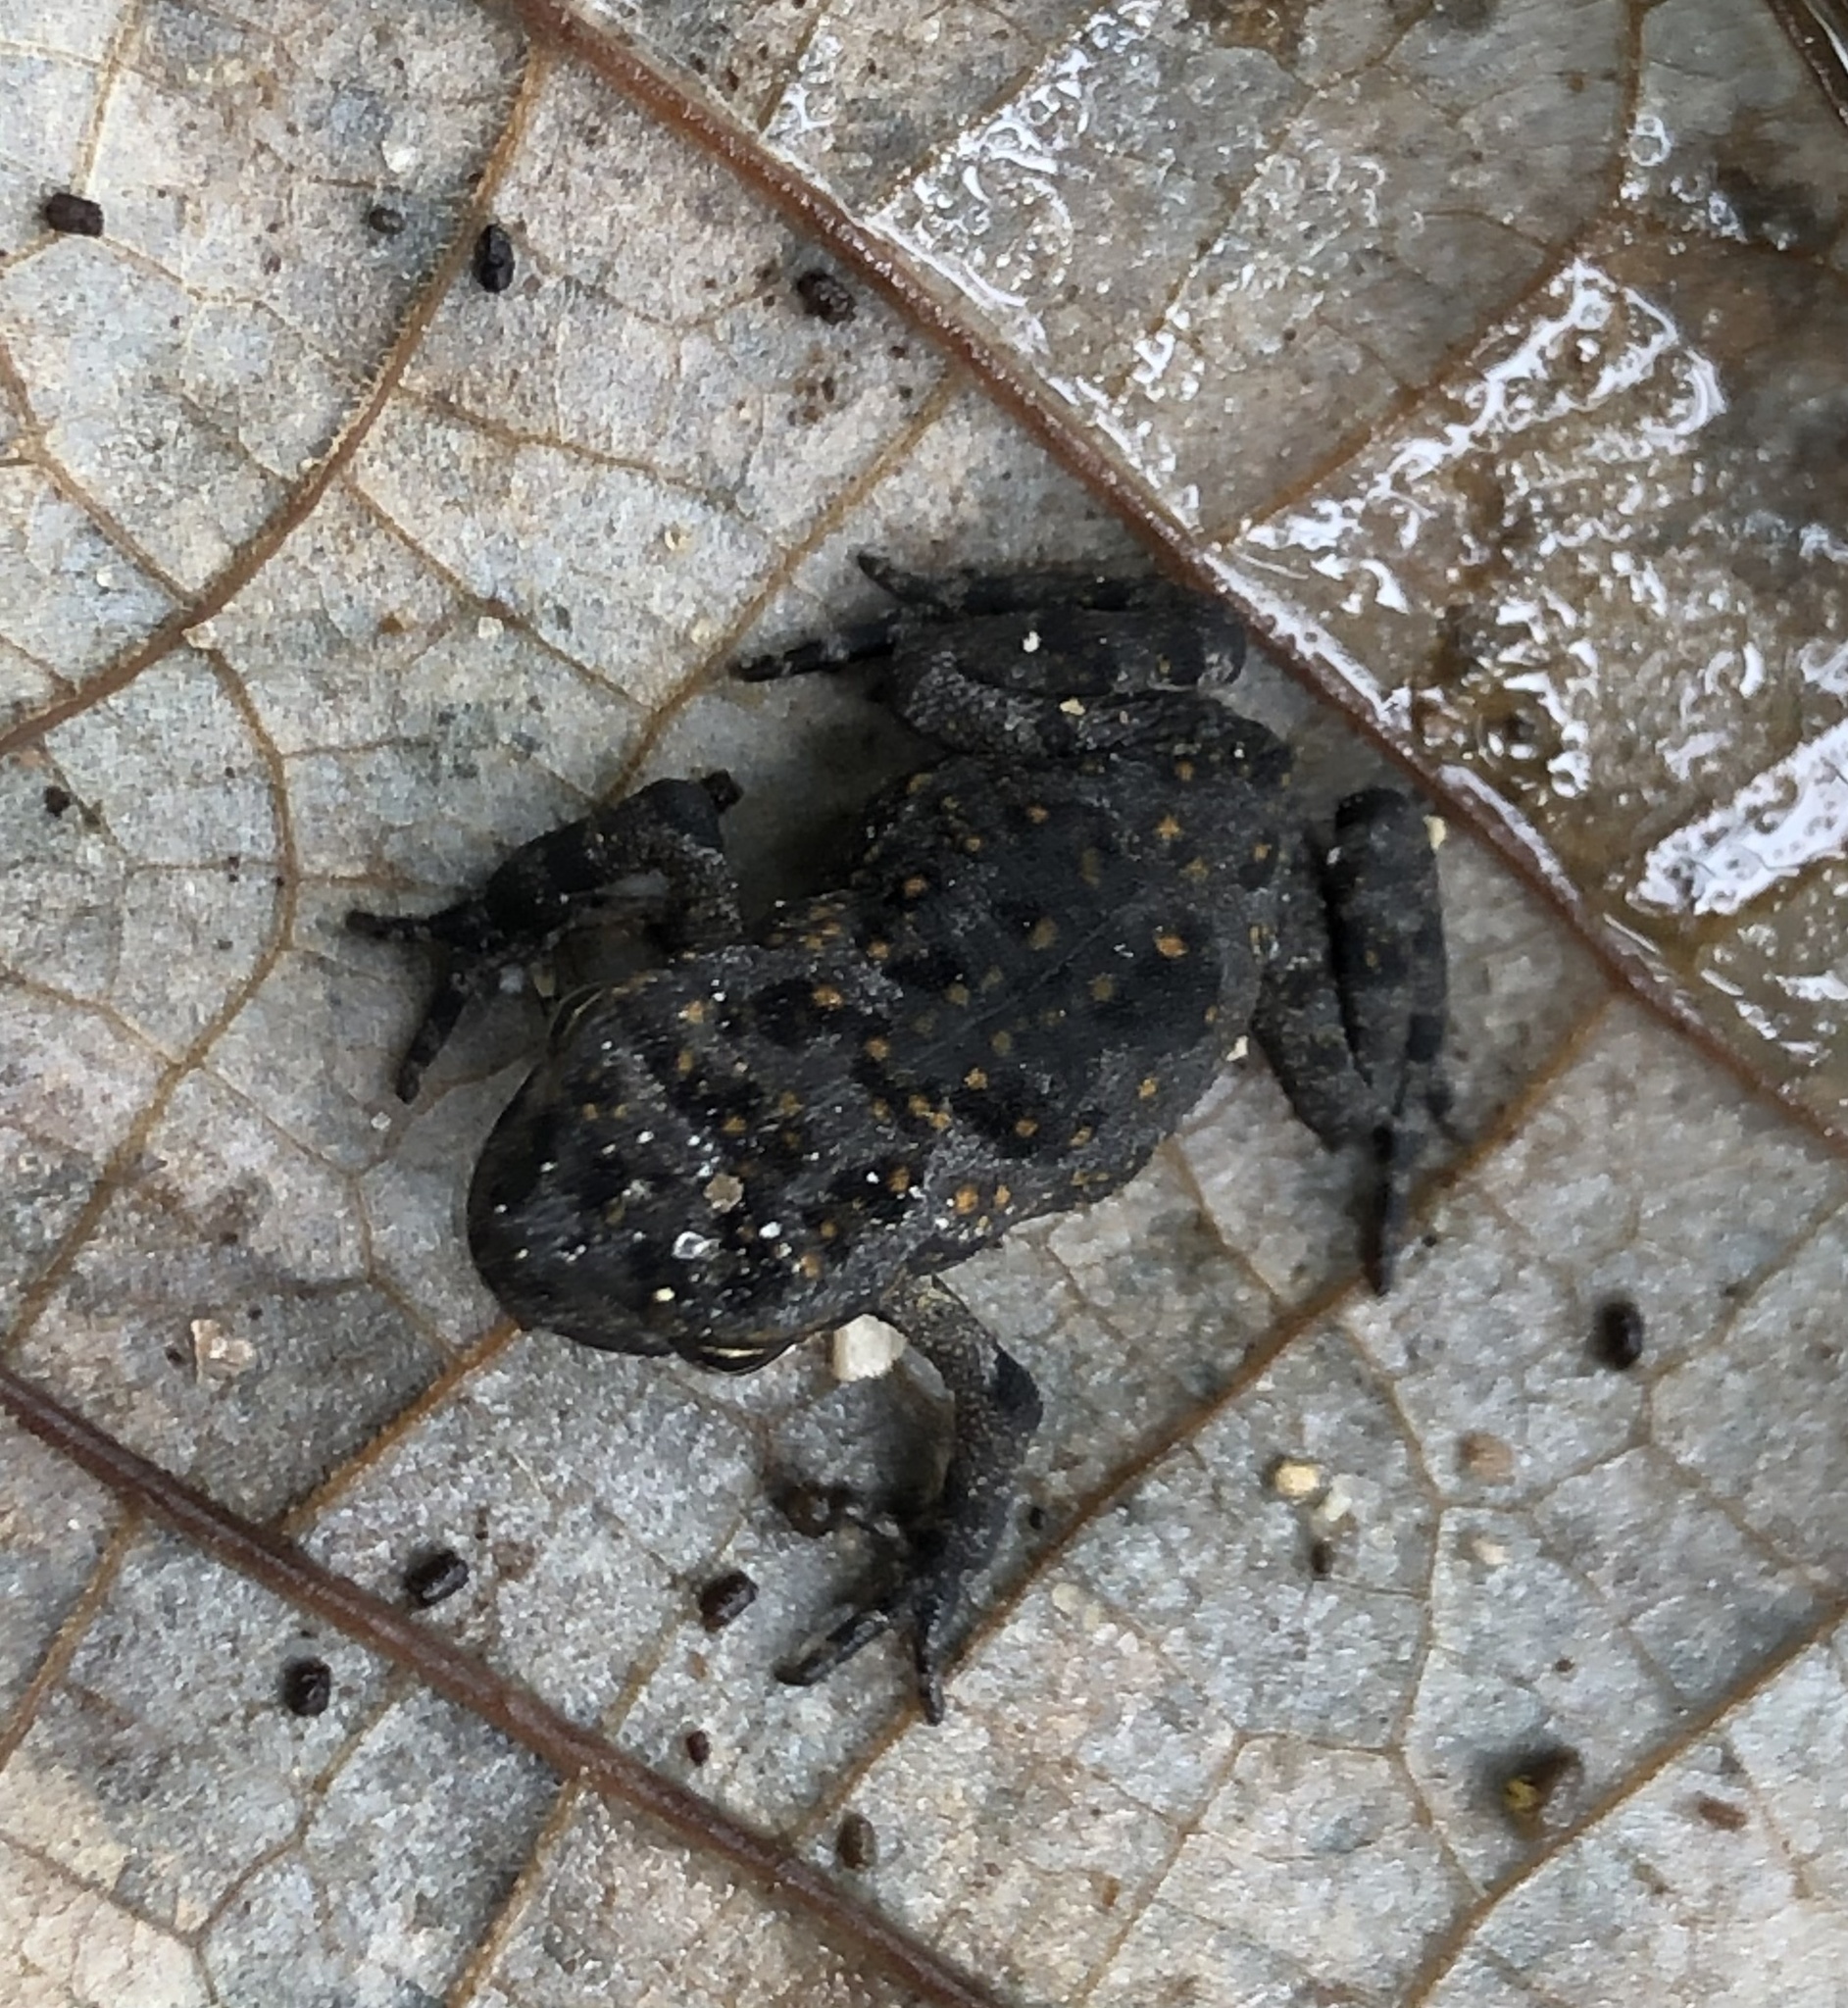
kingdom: Animalia
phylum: Chordata
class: Amphibia
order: Anura
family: Bufonidae
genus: Rhinella
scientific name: Rhinella marina
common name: Cane toad
